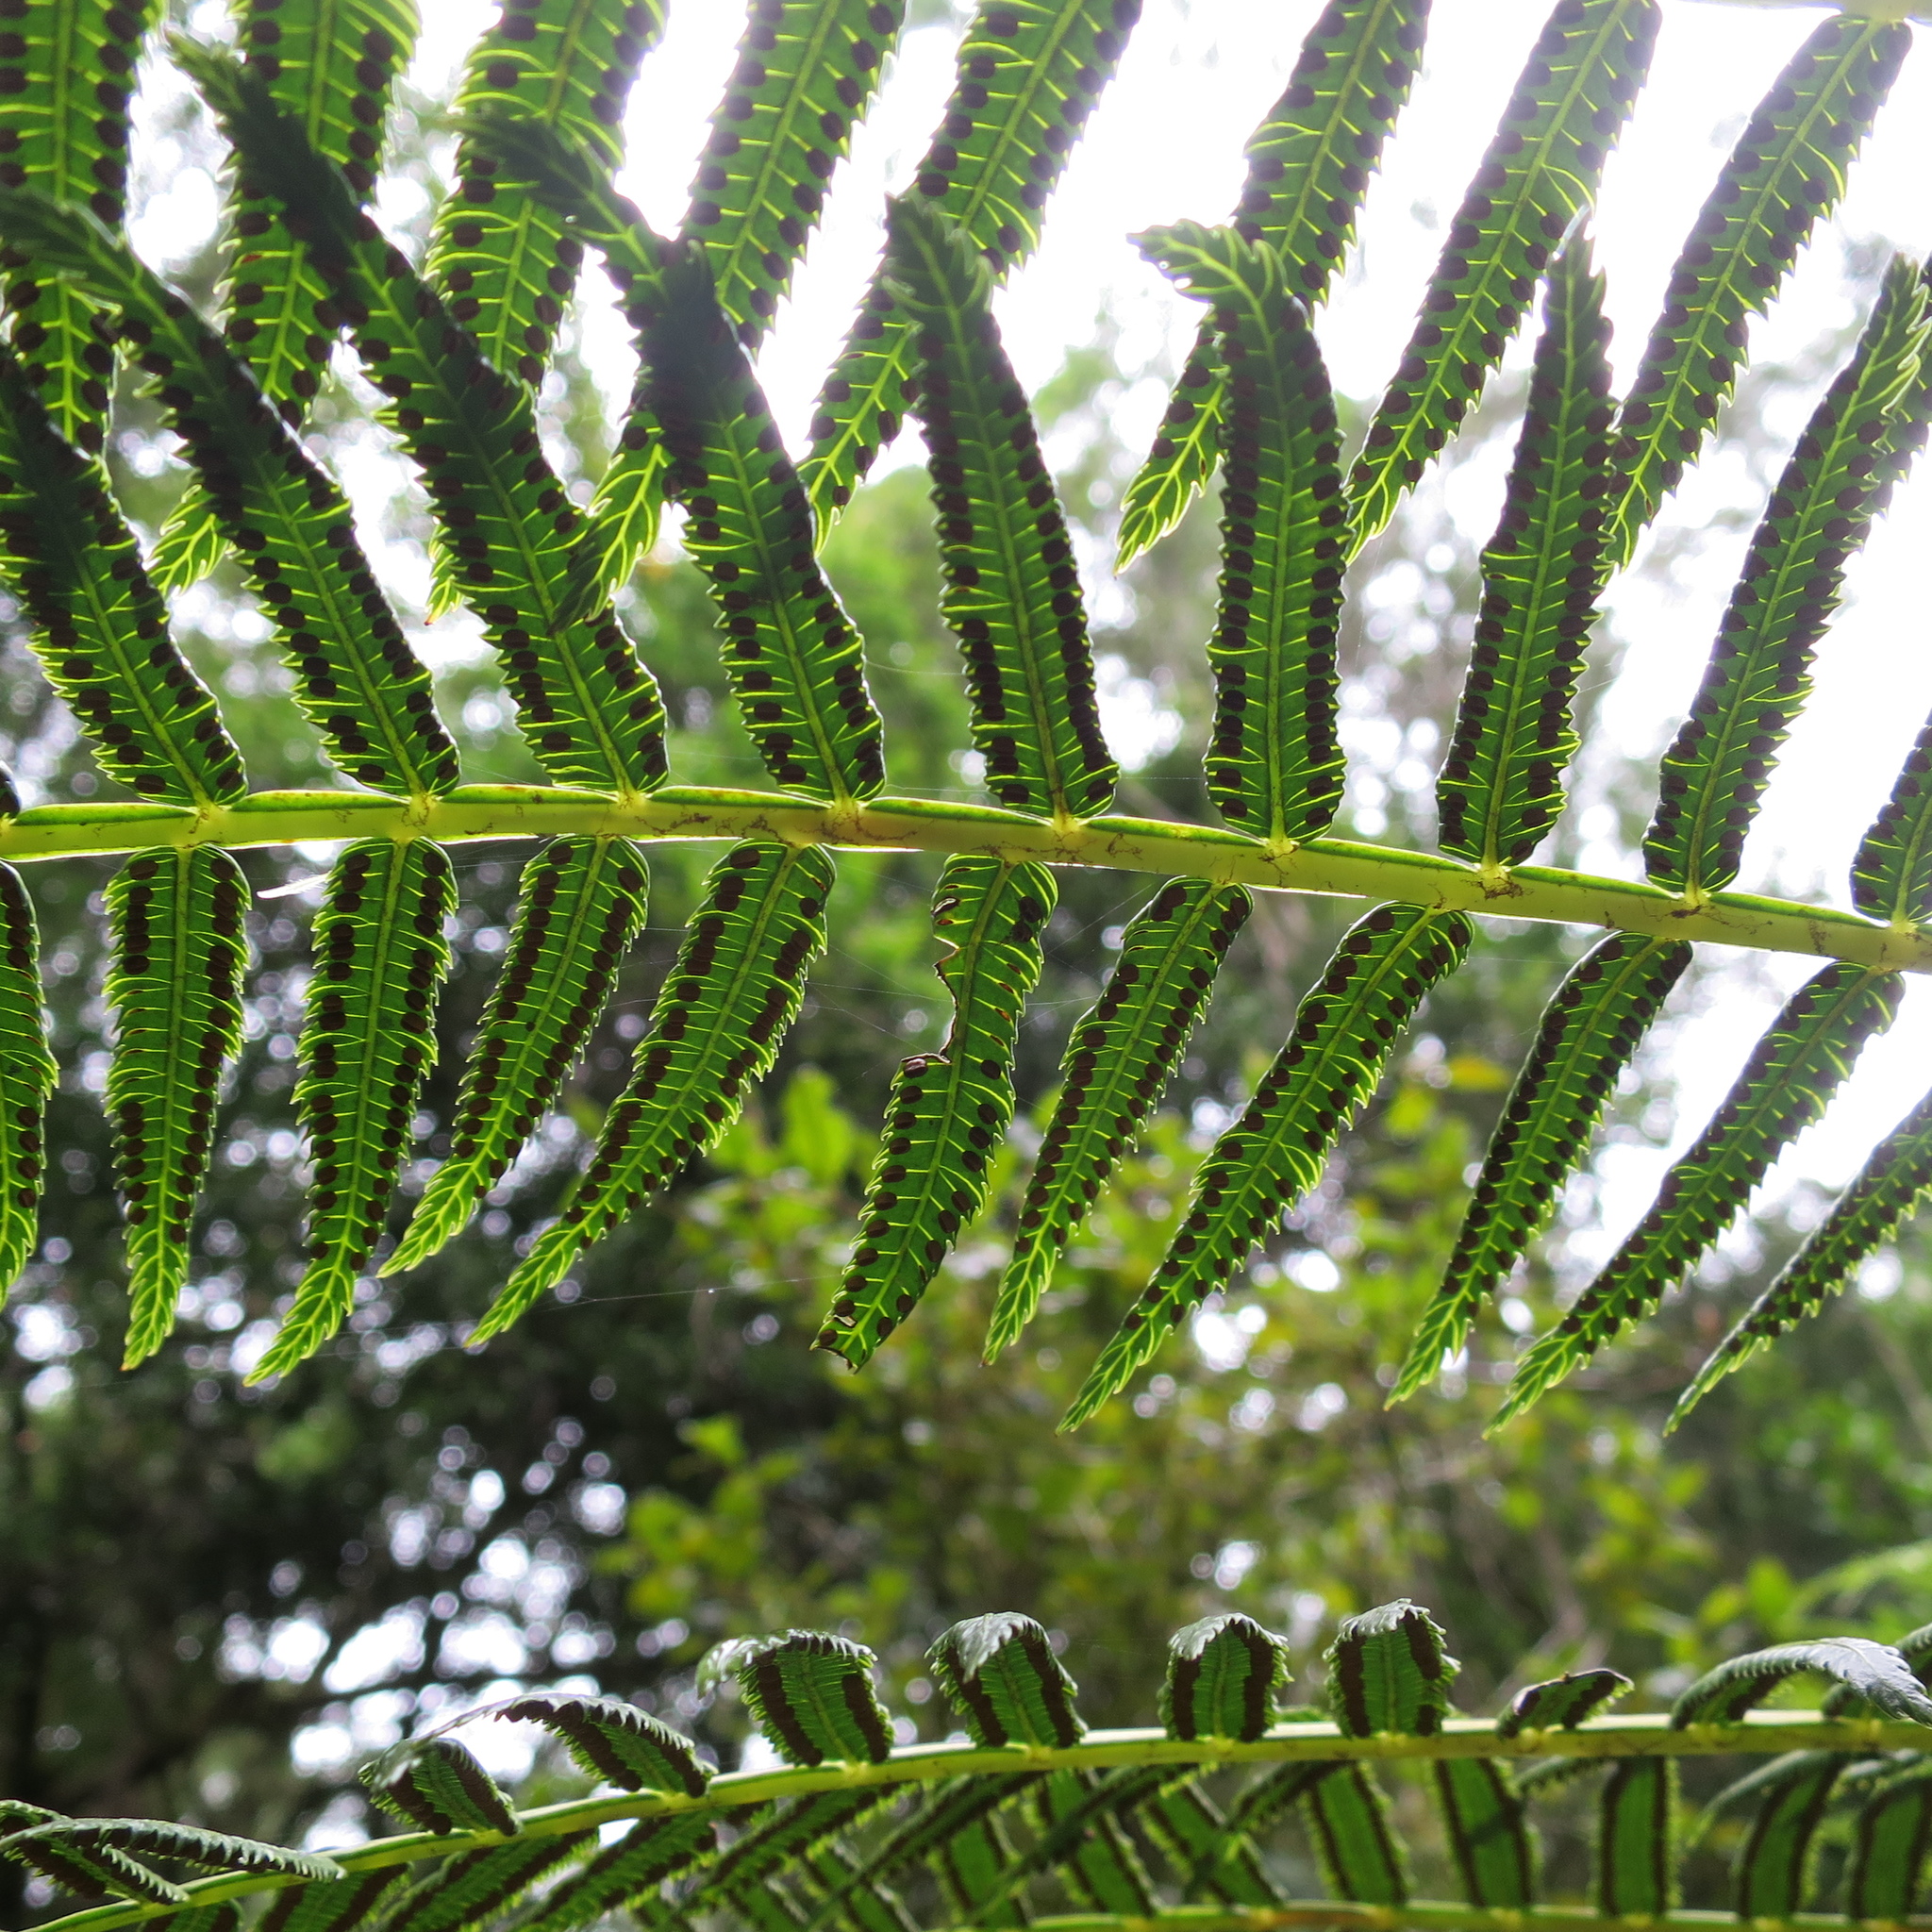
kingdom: Plantae
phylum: Tracheophyta
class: Polypodiopsida
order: Marattiales
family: Marattiaceae
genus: Ptisana
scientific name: Ptisana salicifolia
